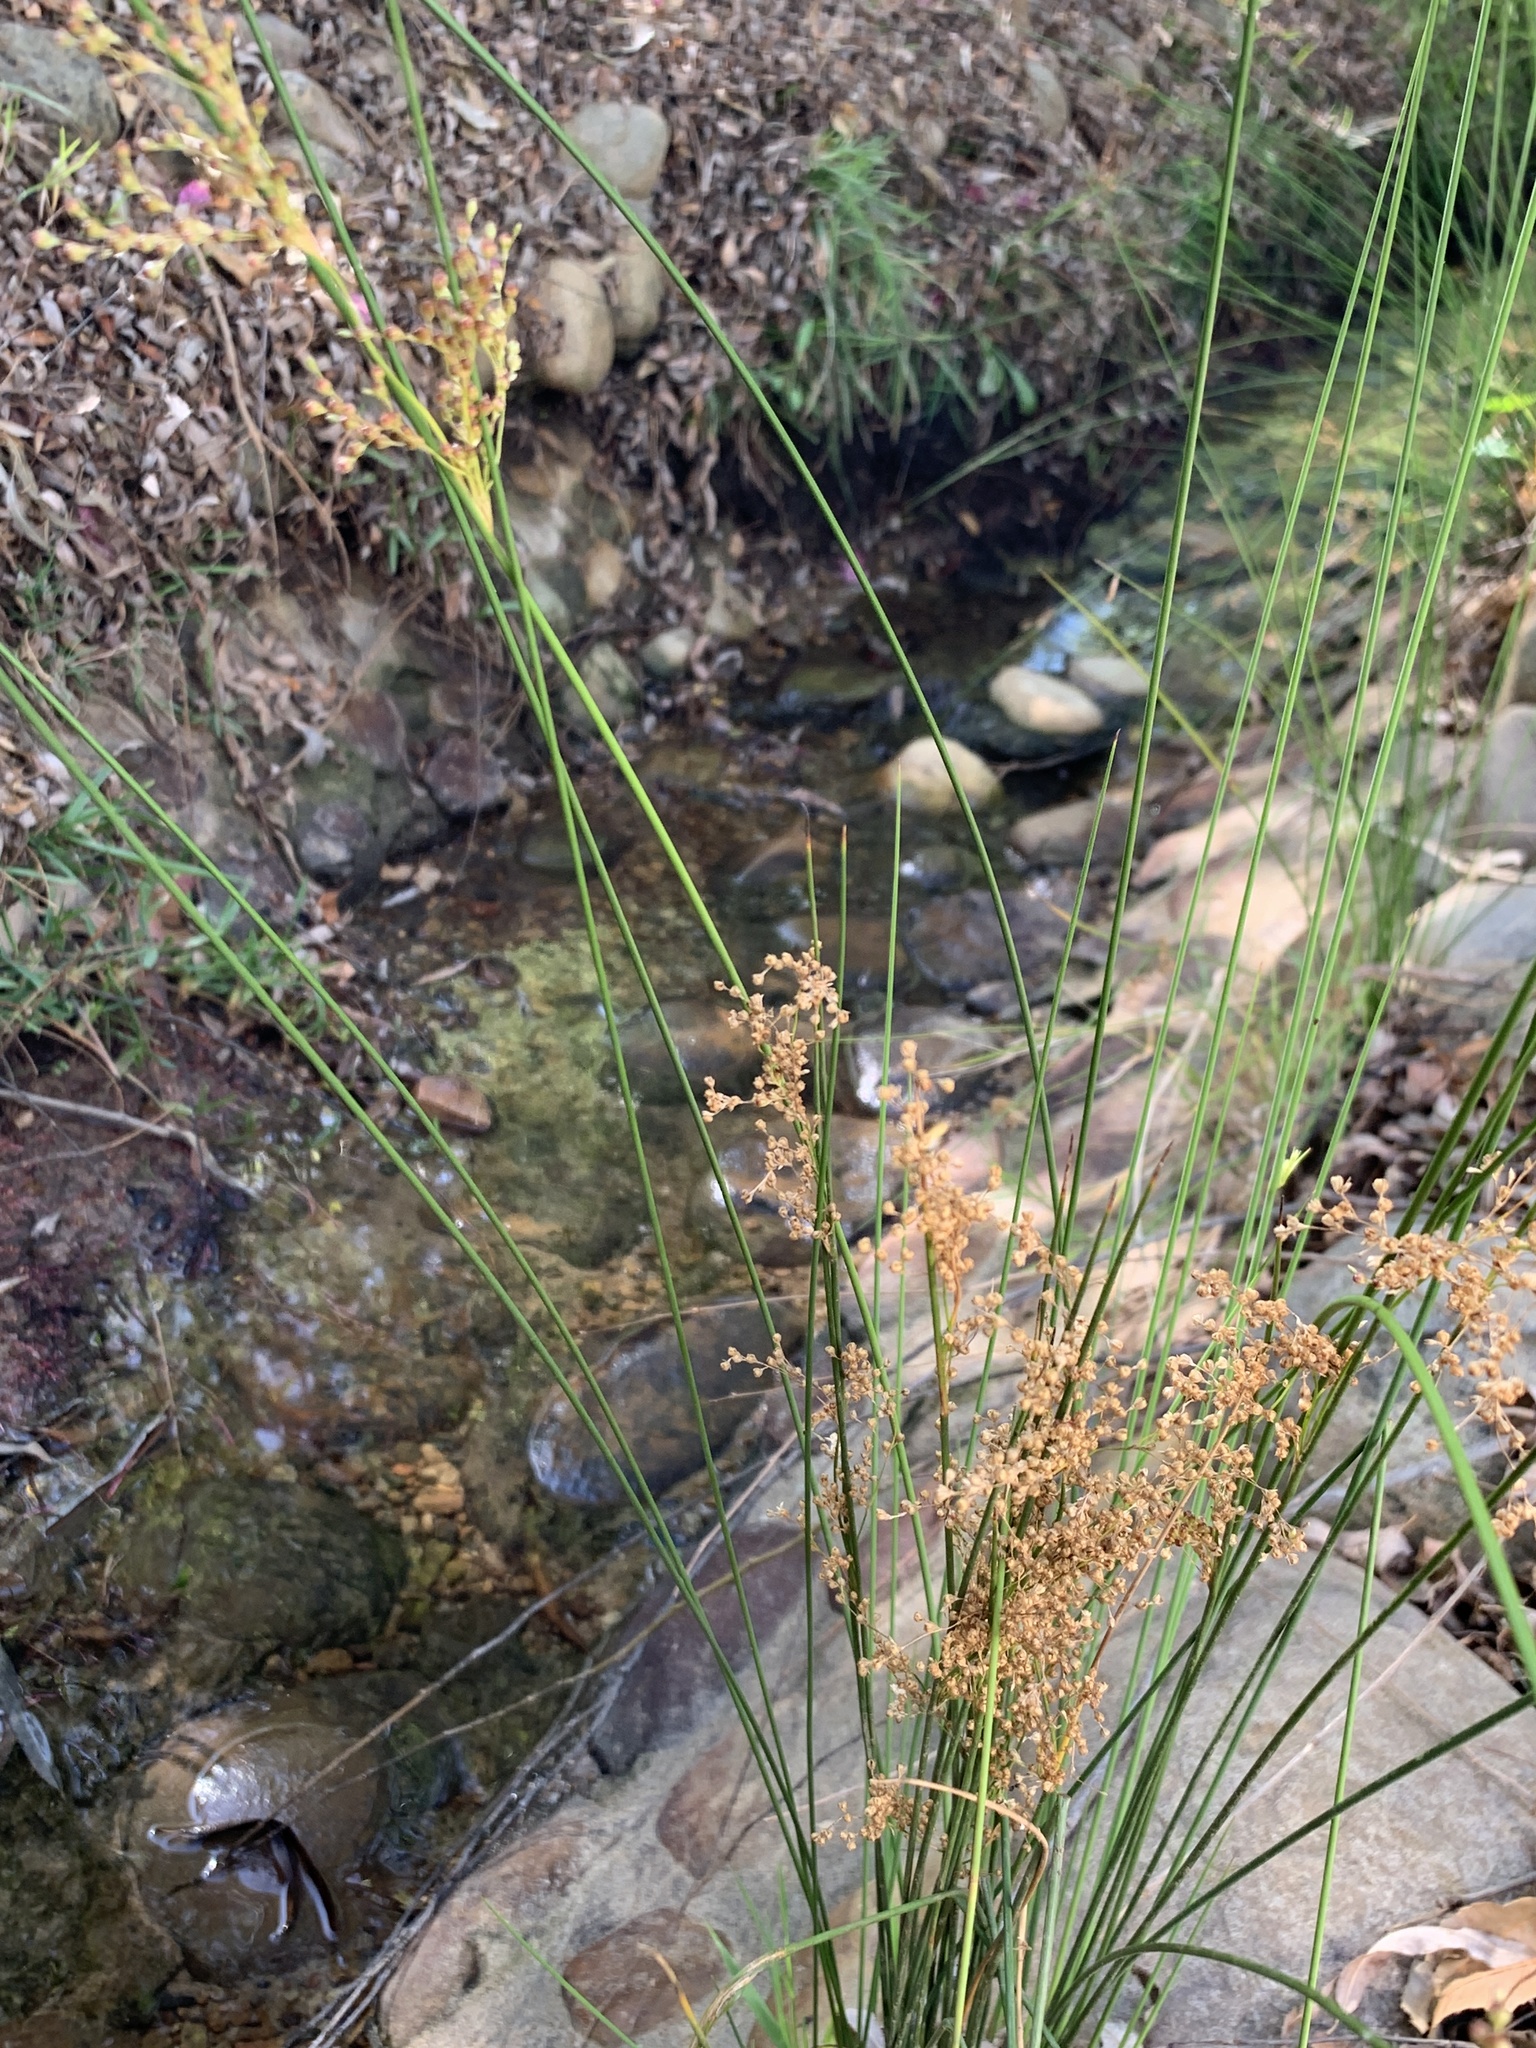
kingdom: Plantae
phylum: Tracheophyta
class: Liliopsida
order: Poales
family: Juncaceae
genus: Juncus
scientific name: Juncus effusus
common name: Soft rush
